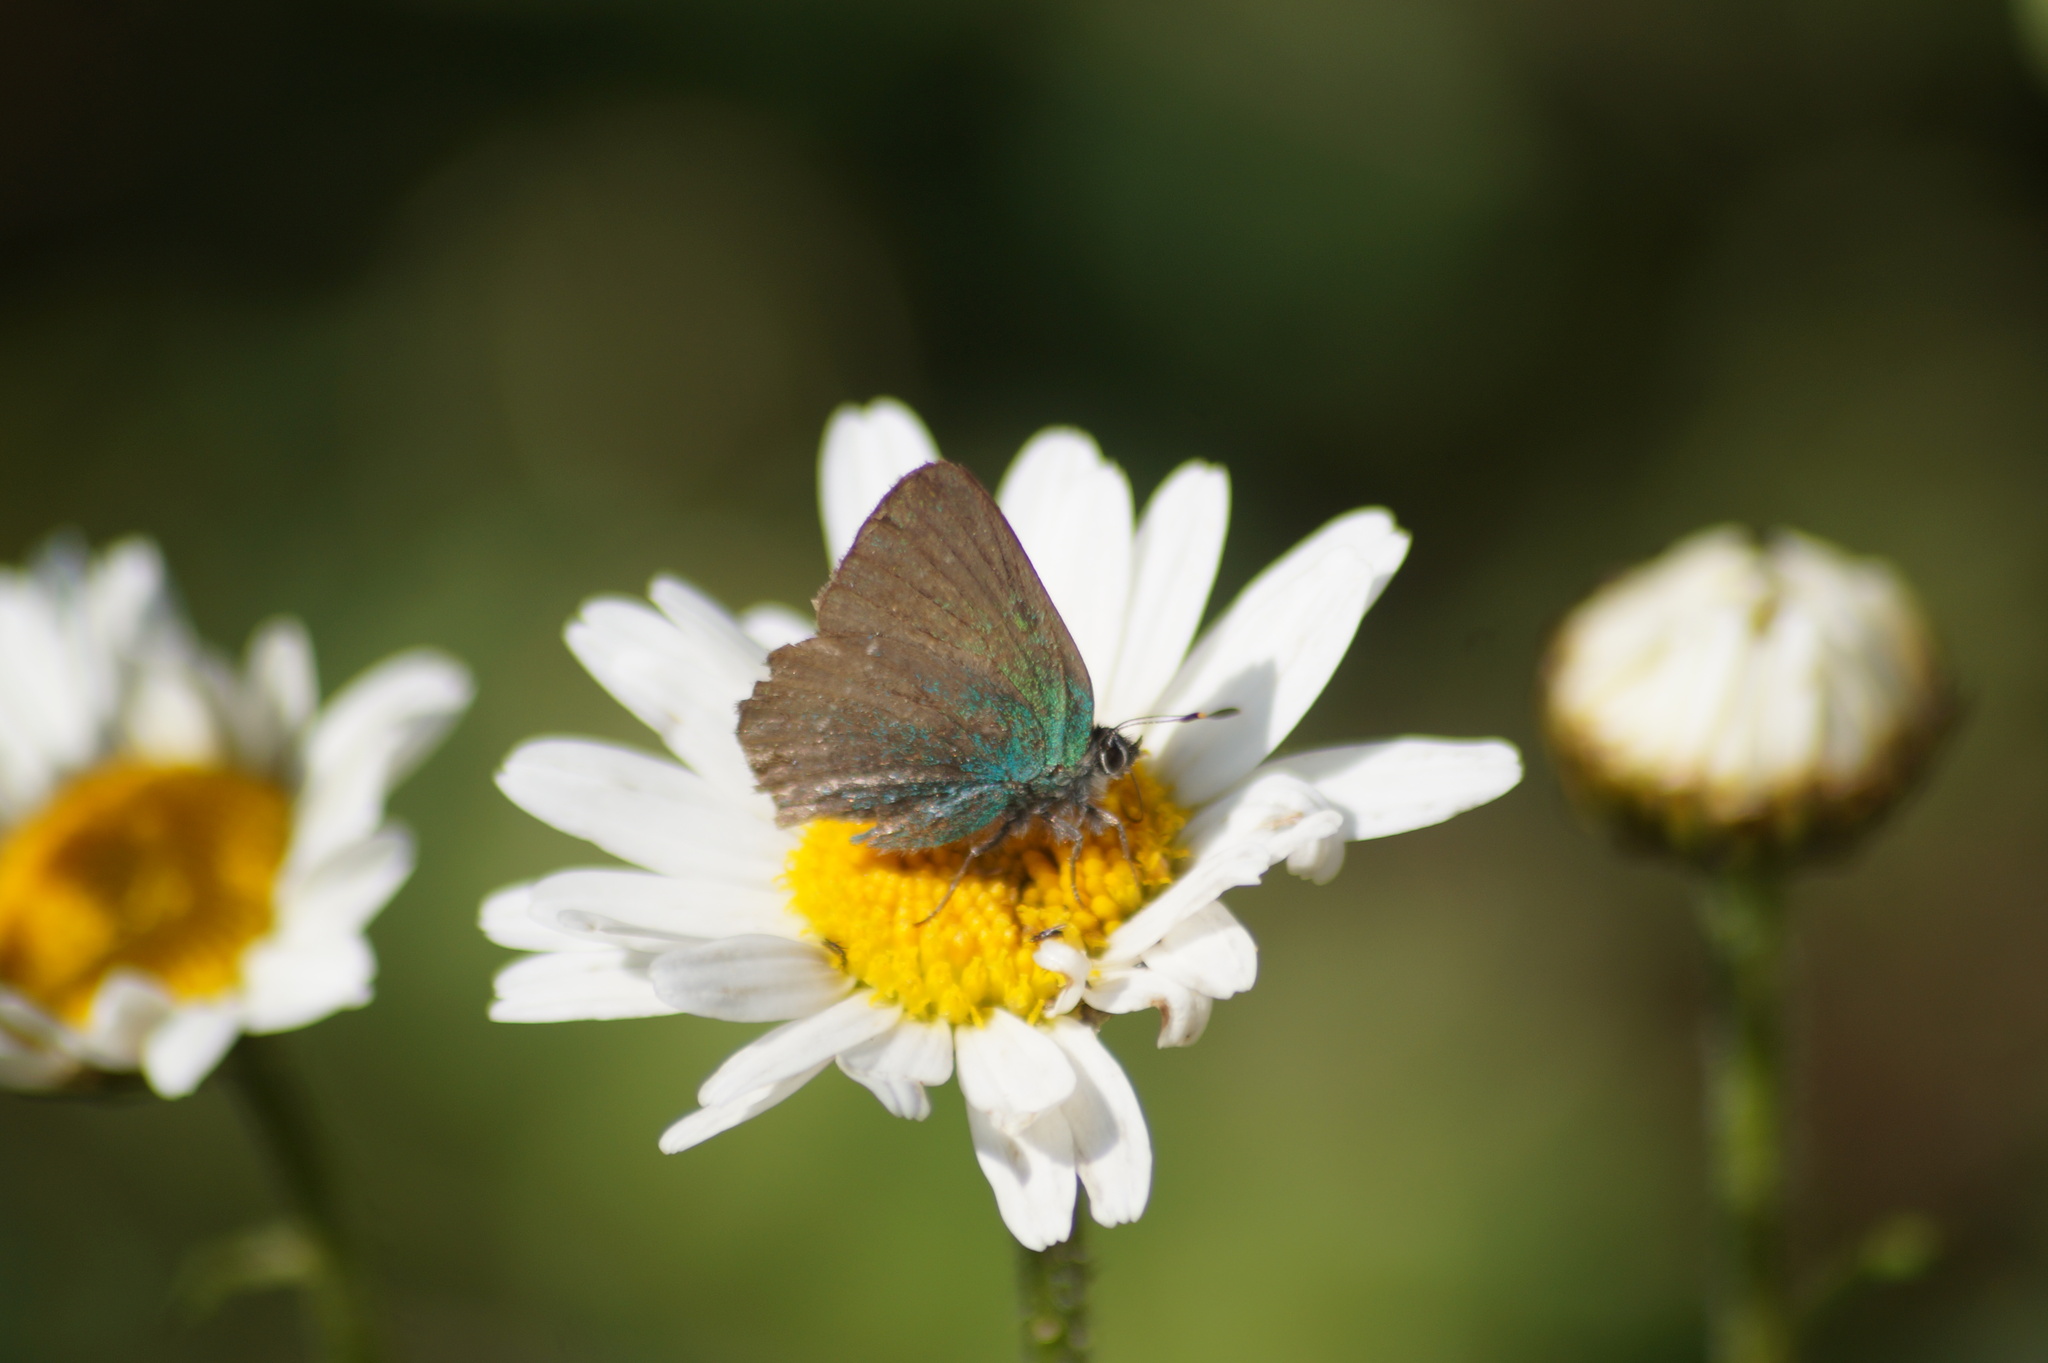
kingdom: Animalia
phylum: Arthropoda
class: Insecta
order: Lepidoptera
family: Lycaenidae
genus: Callophrys
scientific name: Callophrys rubi
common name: Green hairstreak
